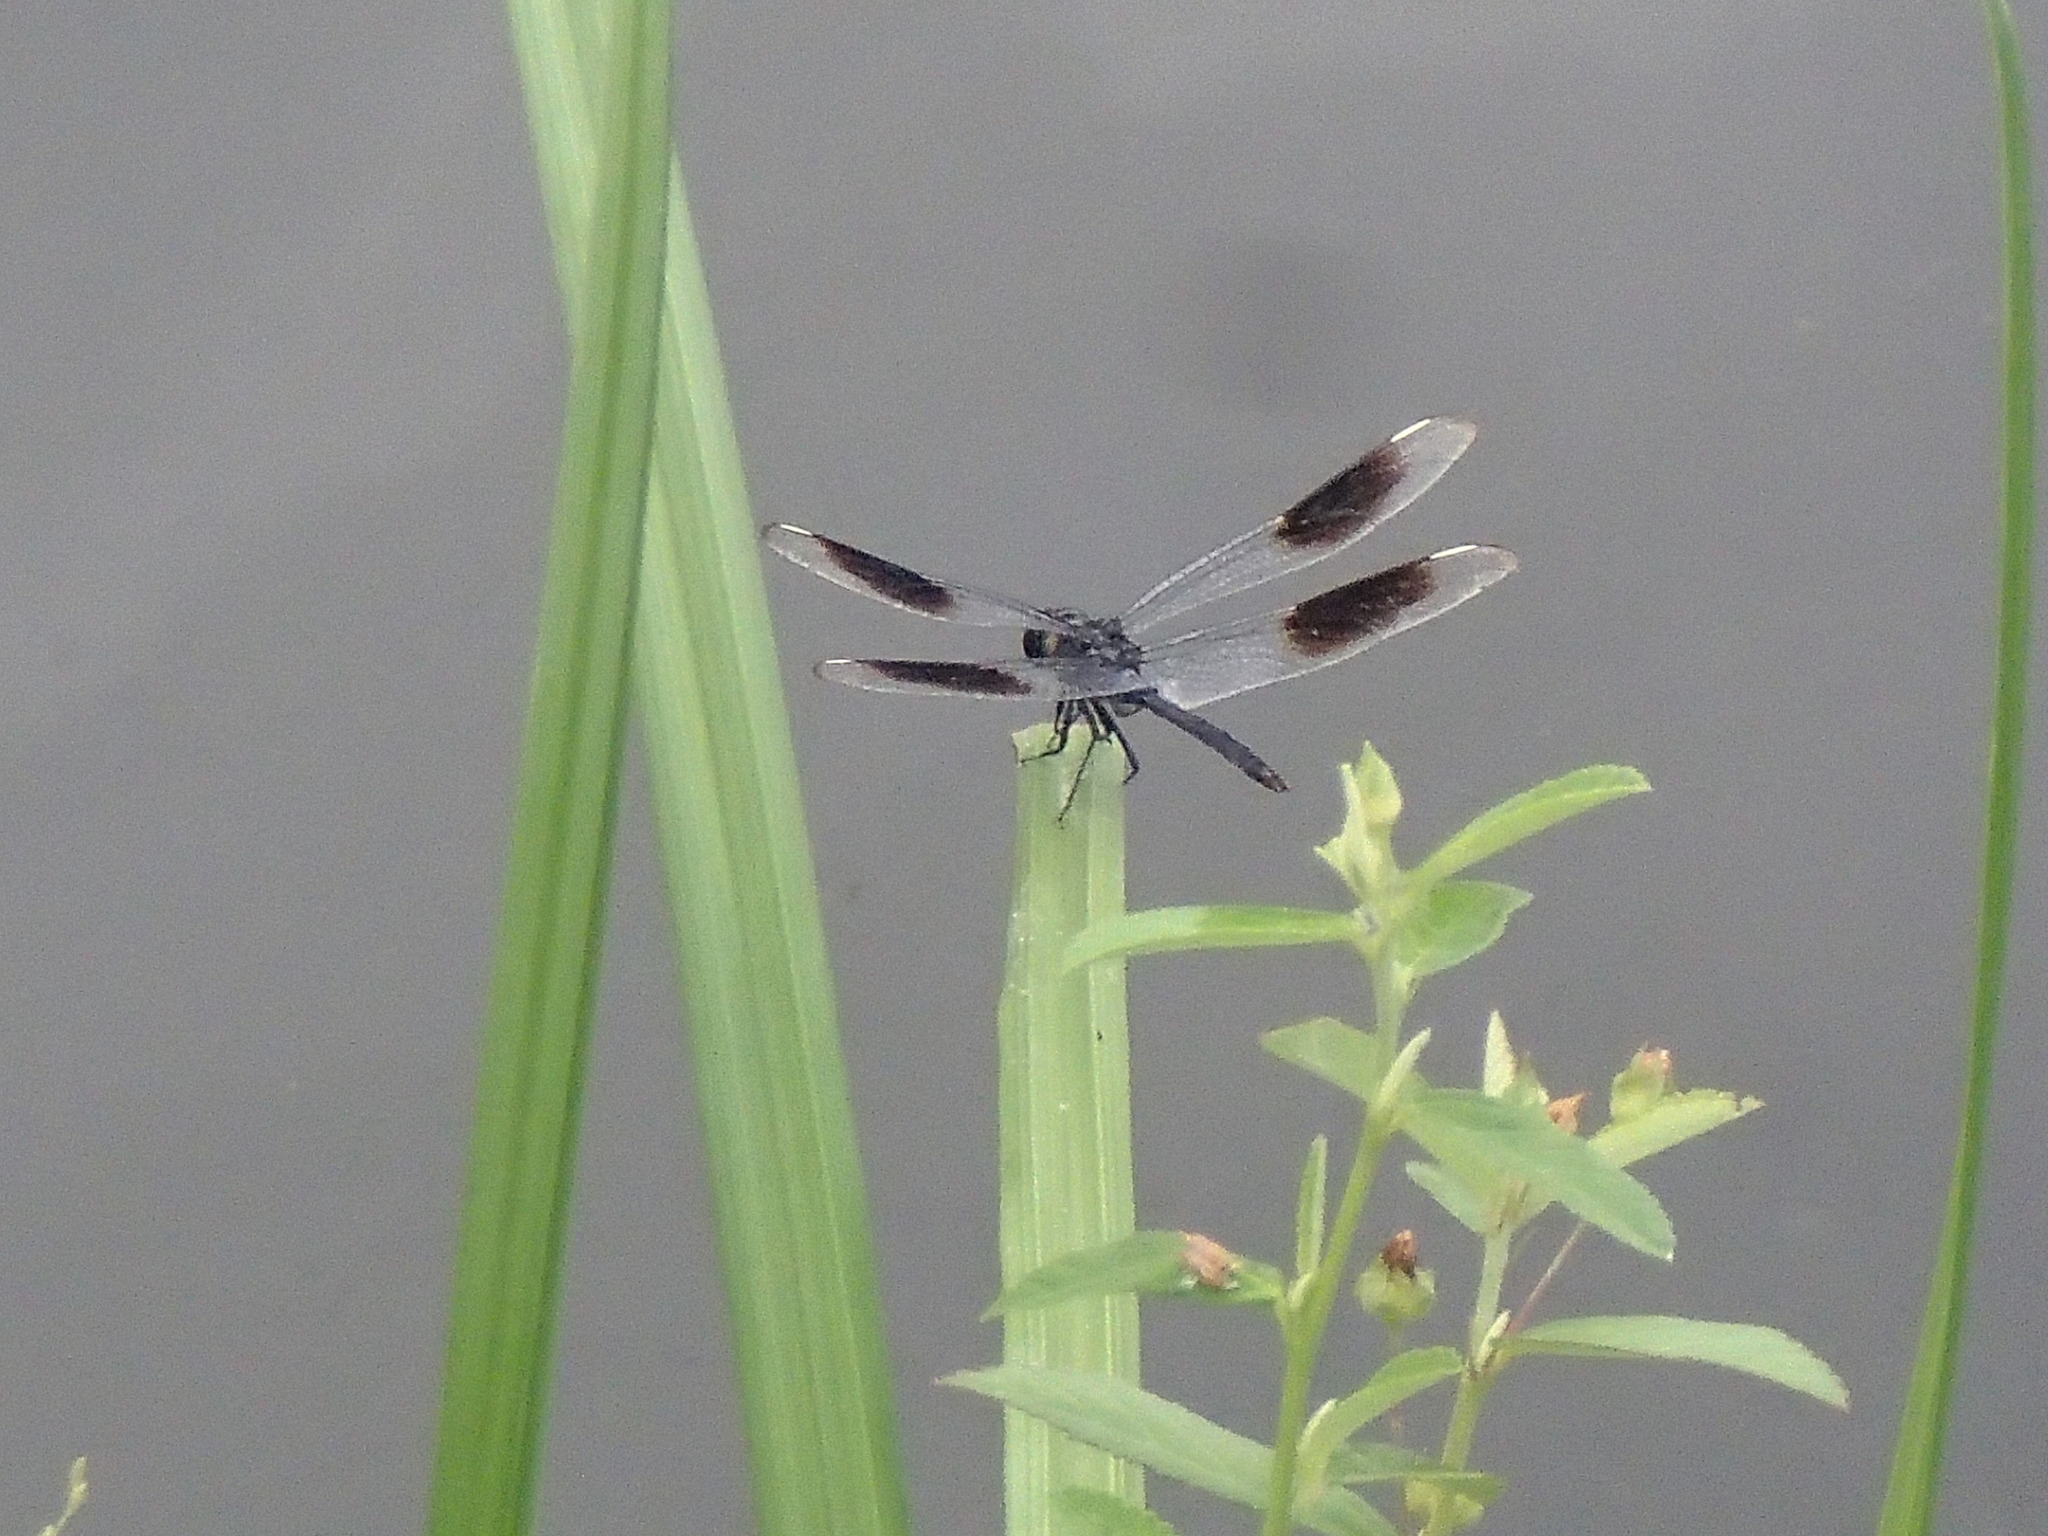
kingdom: Animalia
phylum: Arthropoda
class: Insecta
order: Odonata
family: Libellulidae
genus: Brachymesia
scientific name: Brachymesia gravida
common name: Four-spotted pennant
